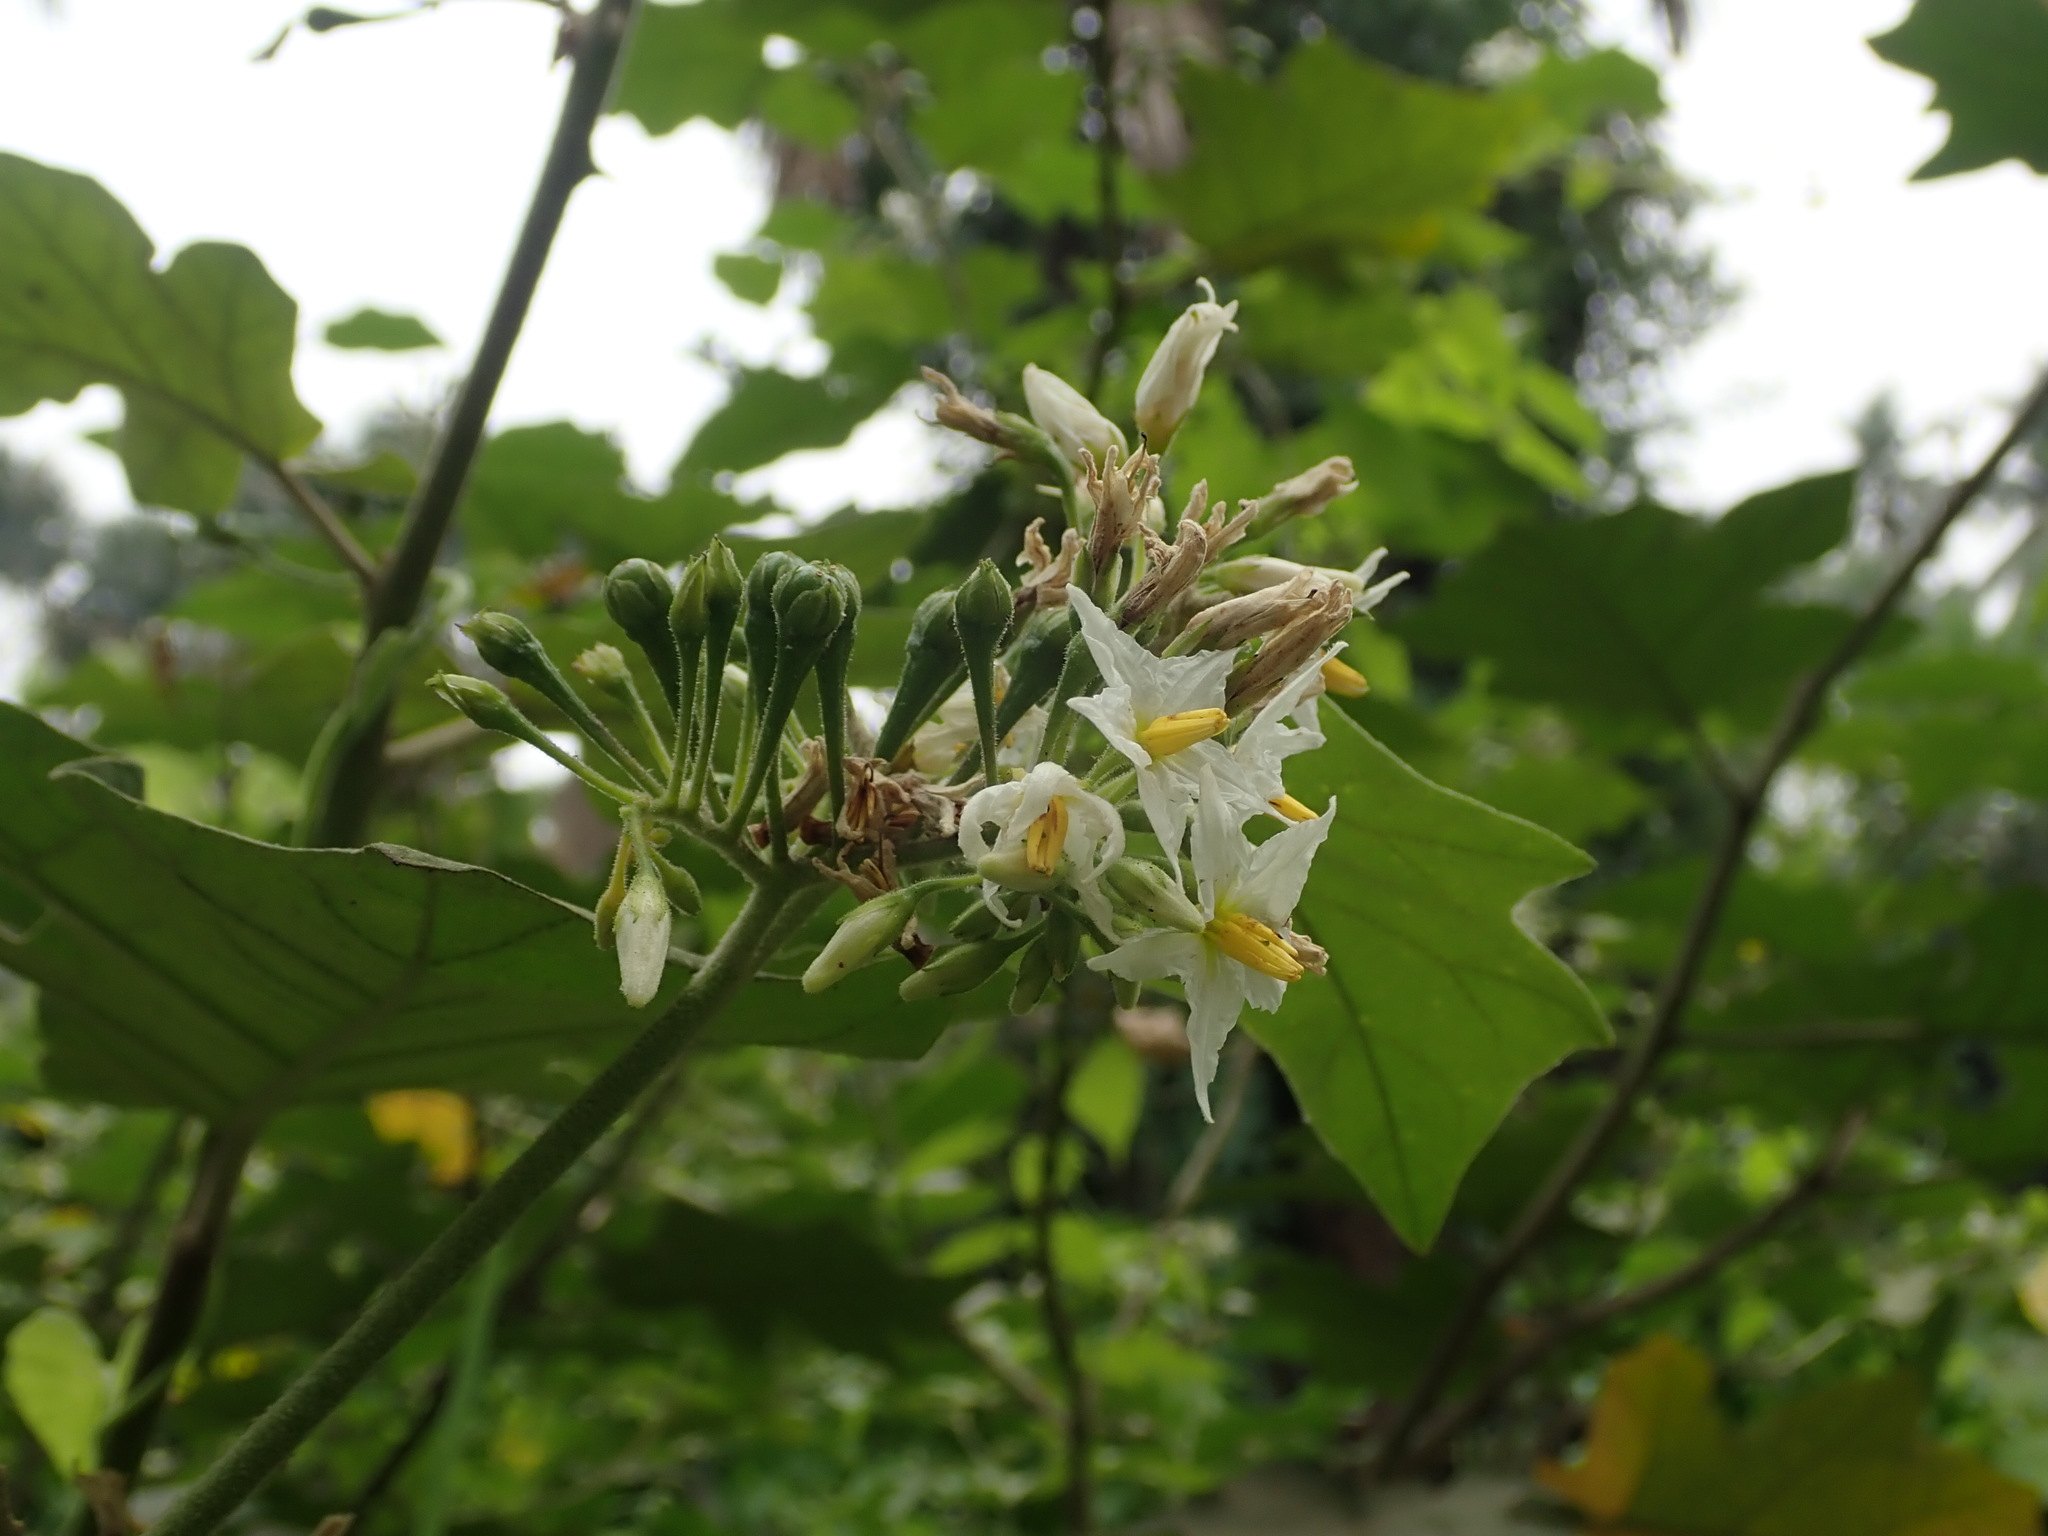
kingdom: Plantae
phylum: Tracheophyta
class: Magnoliopsida
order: Solanales
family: Solanaceae
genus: Solanum
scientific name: Solanum torvum
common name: Turkey berry
